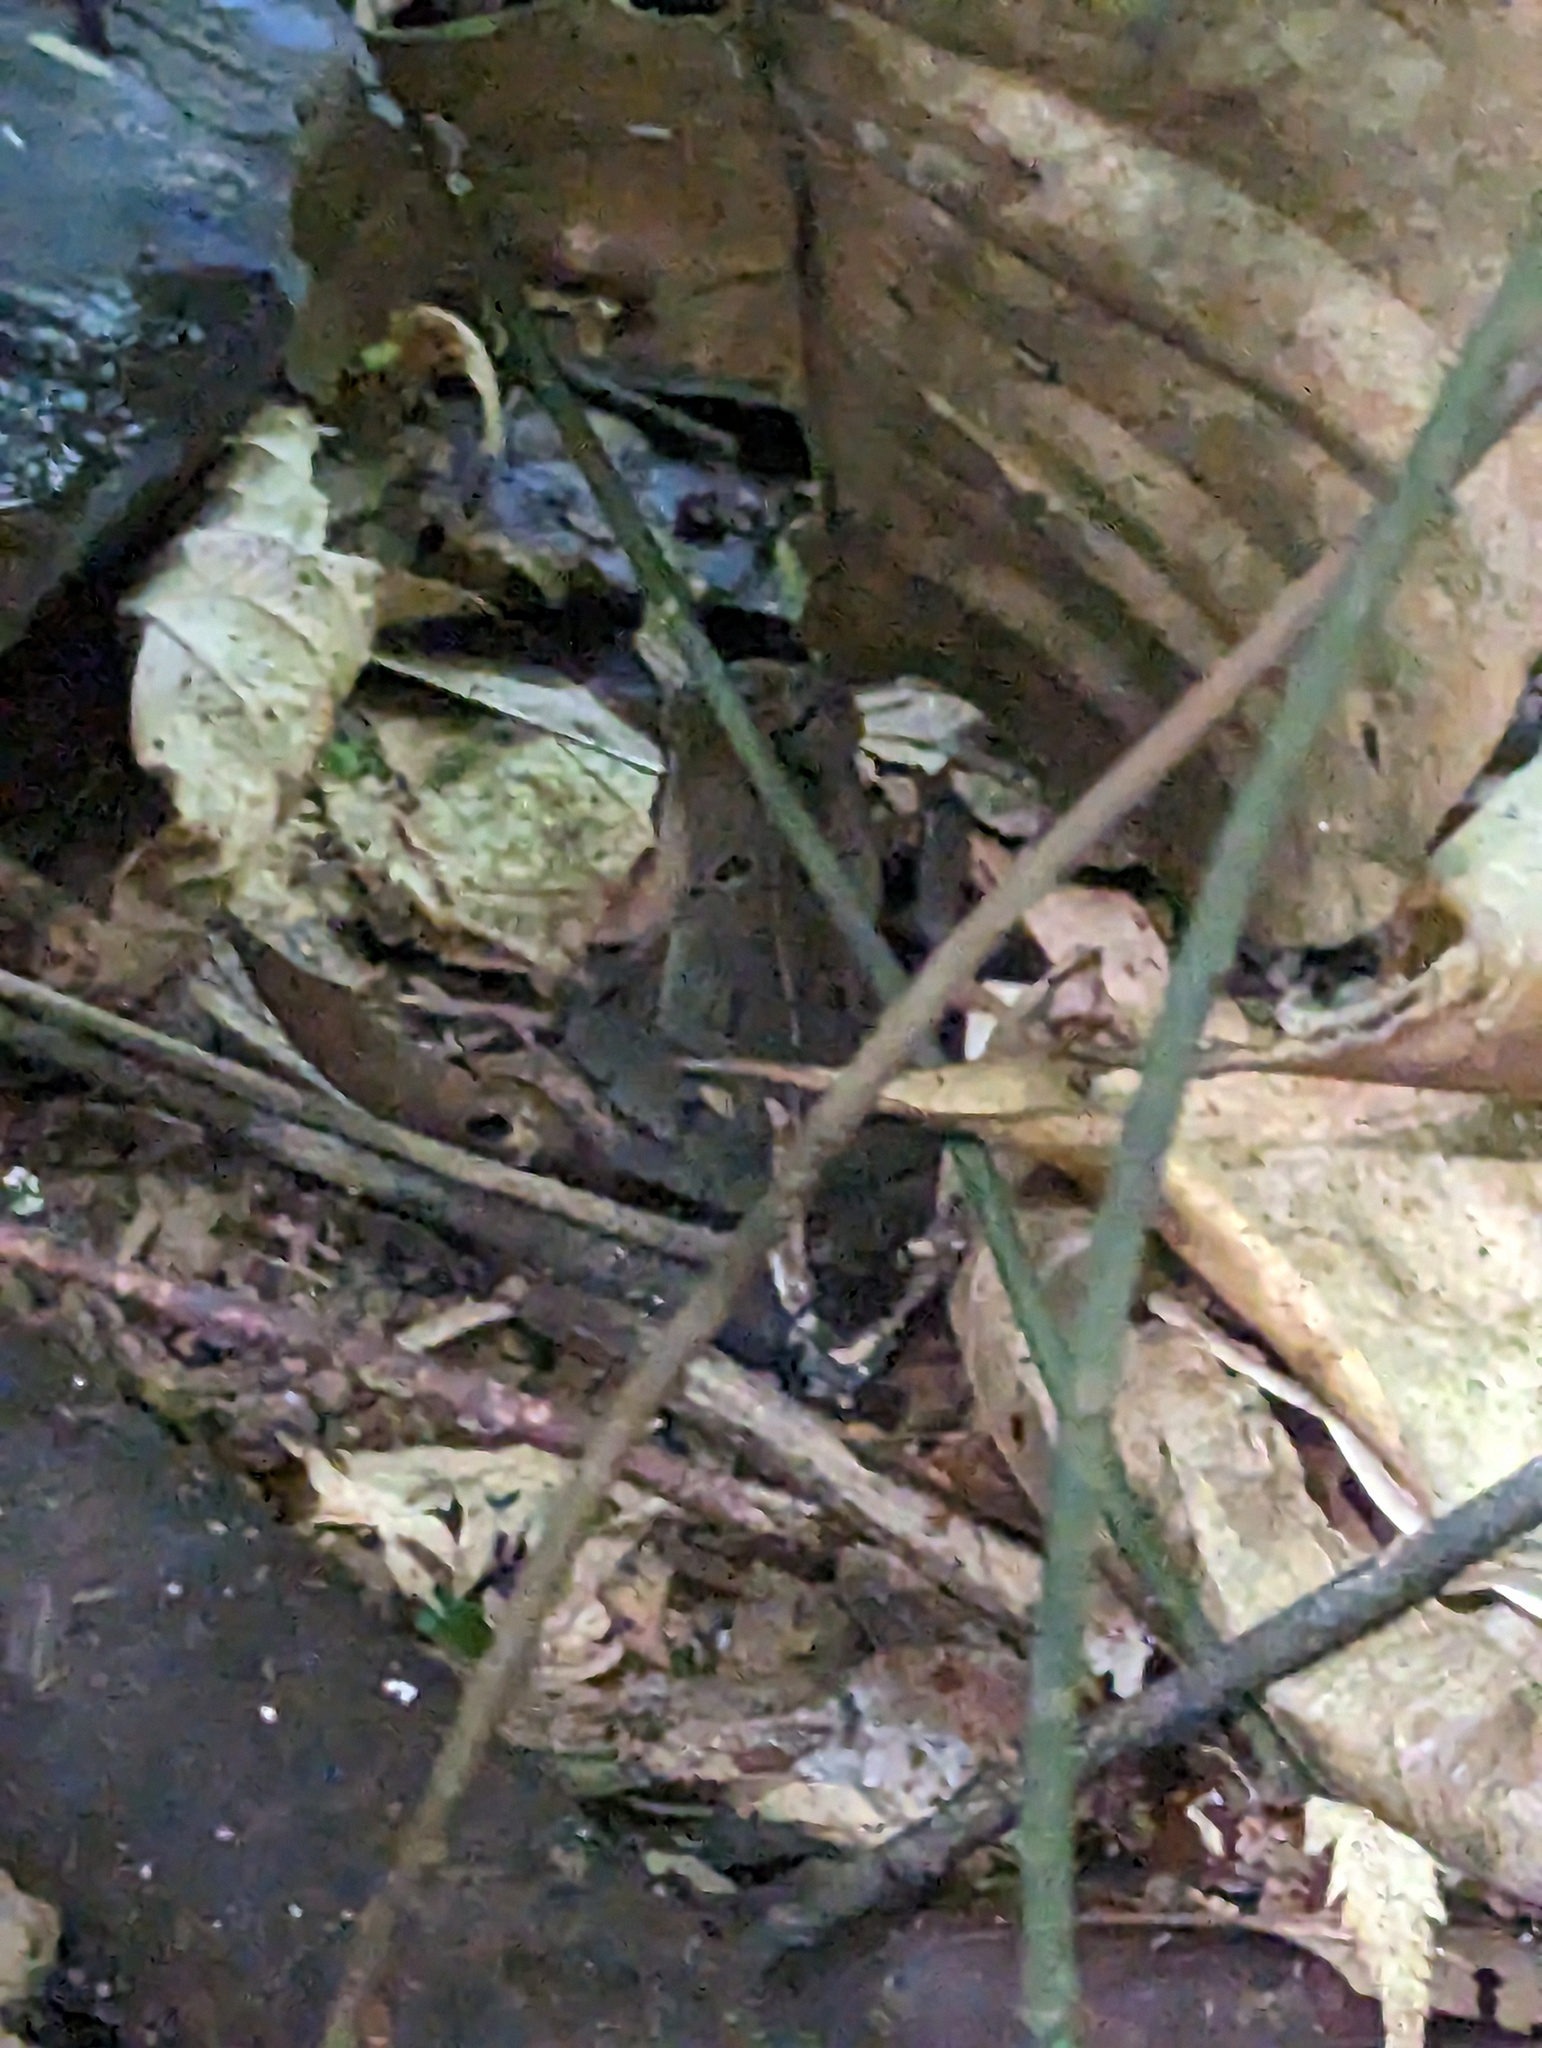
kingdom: Animalia
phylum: Chordata
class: Amphibia
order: Anura
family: Bufonidae
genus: Rhaebo
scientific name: Rhaebo haematiticus
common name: Truando toad
